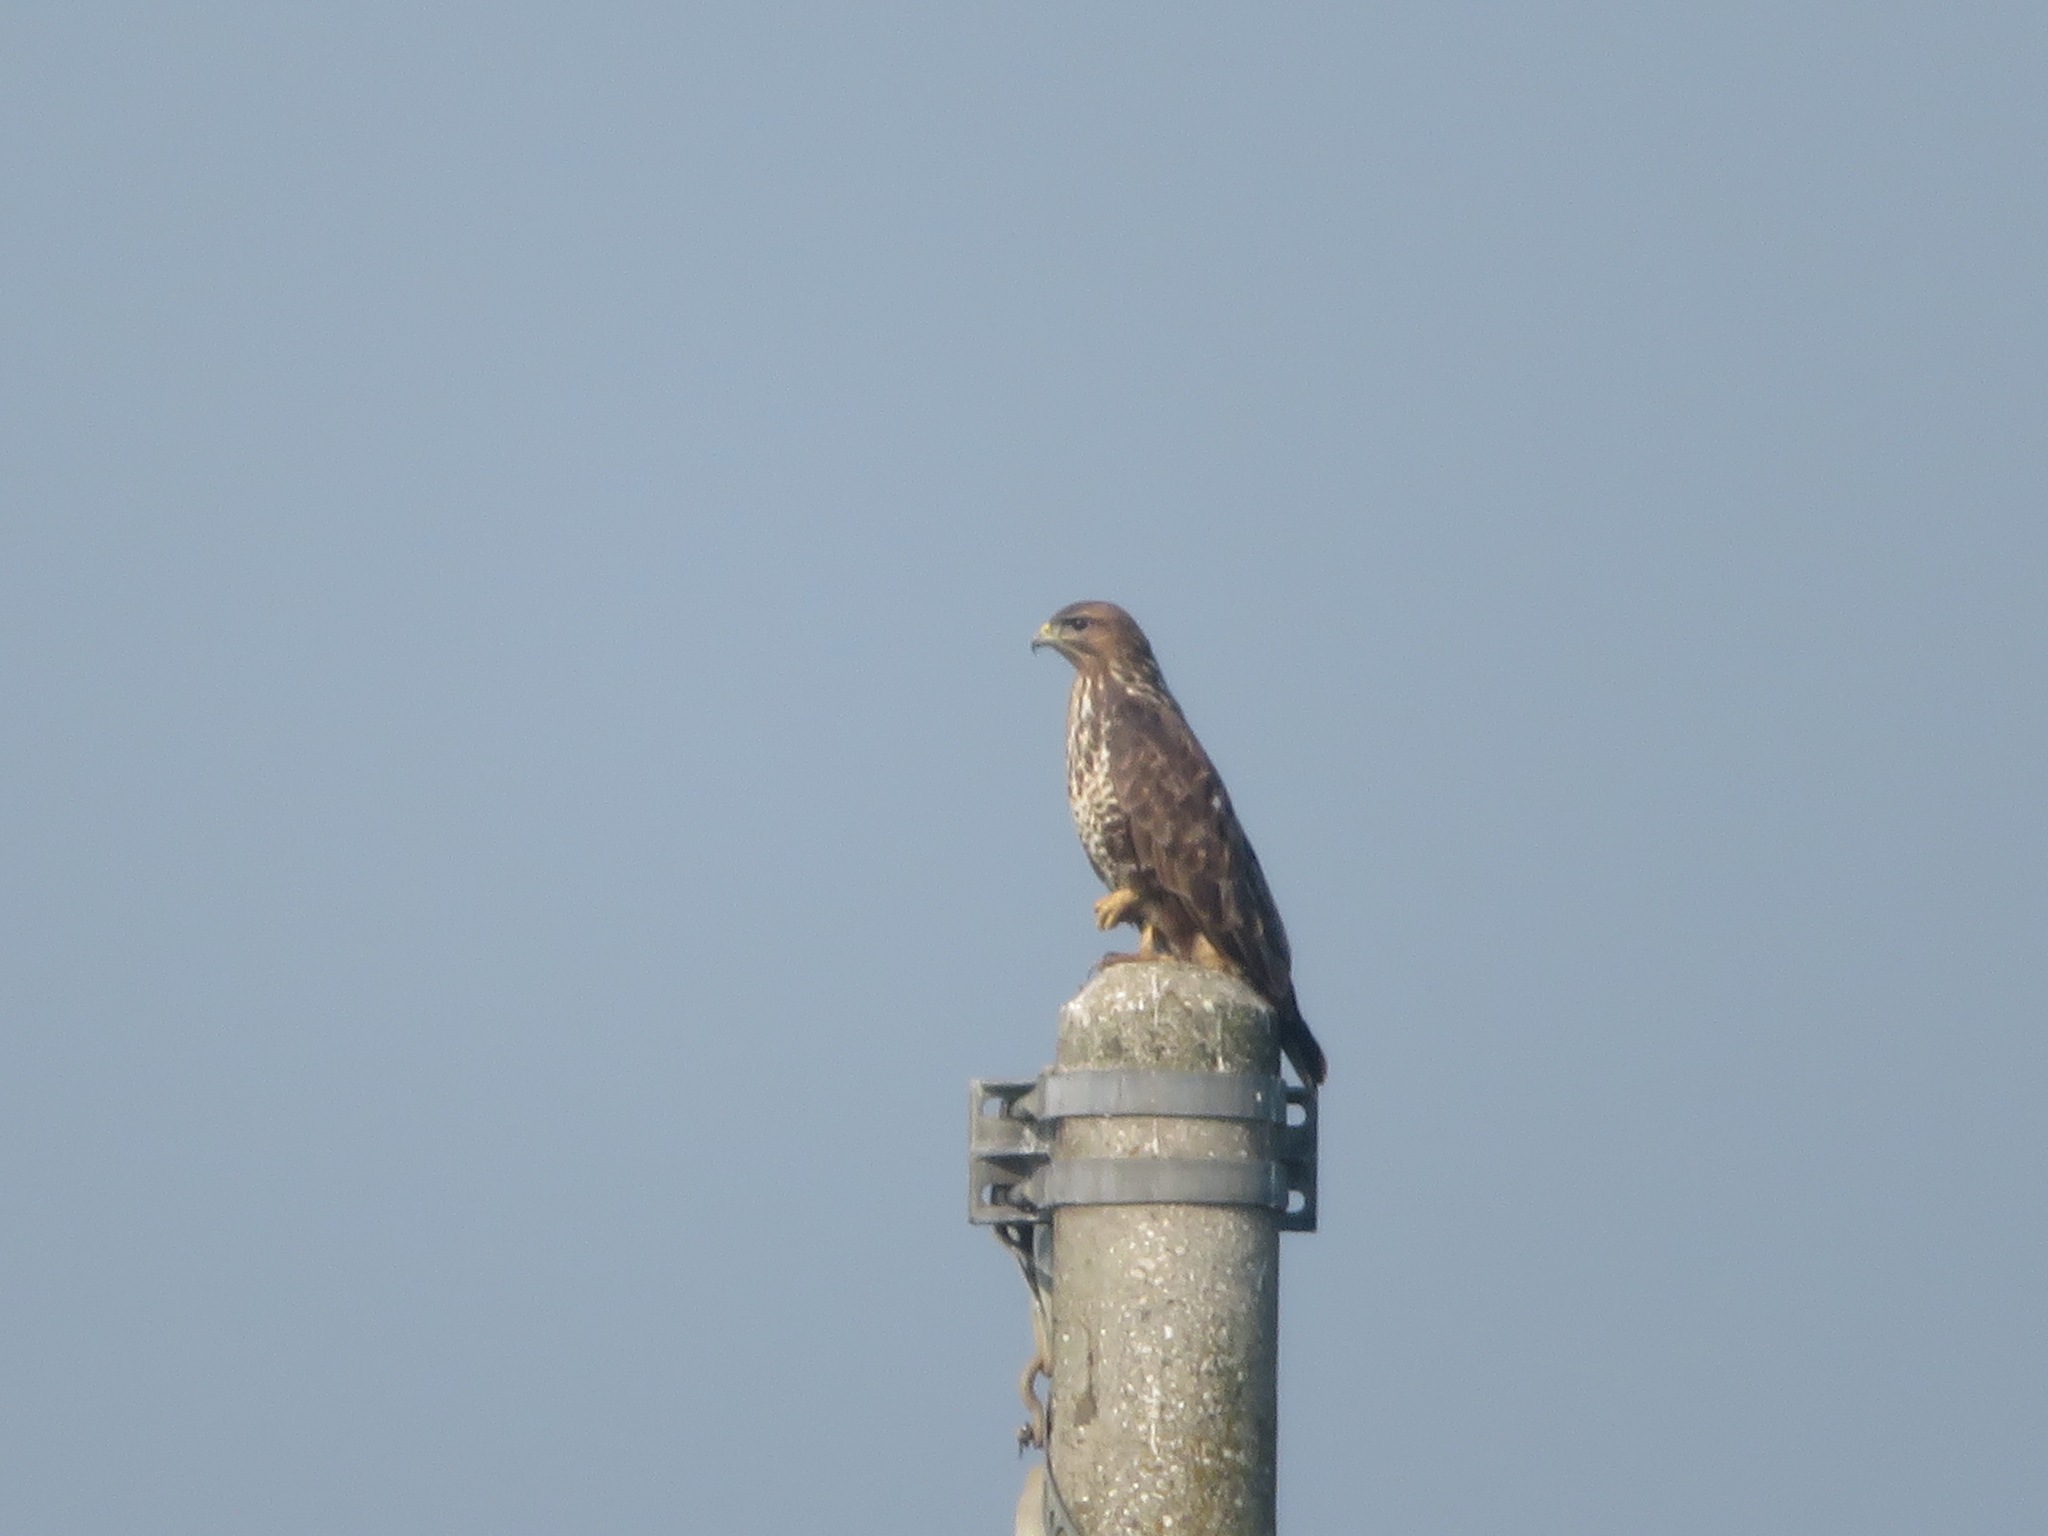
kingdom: Animalia
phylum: Chordata
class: Aves
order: Accipitriformes
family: Accipitridae
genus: Buteo
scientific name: Buteo buteo
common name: Common buzzard
